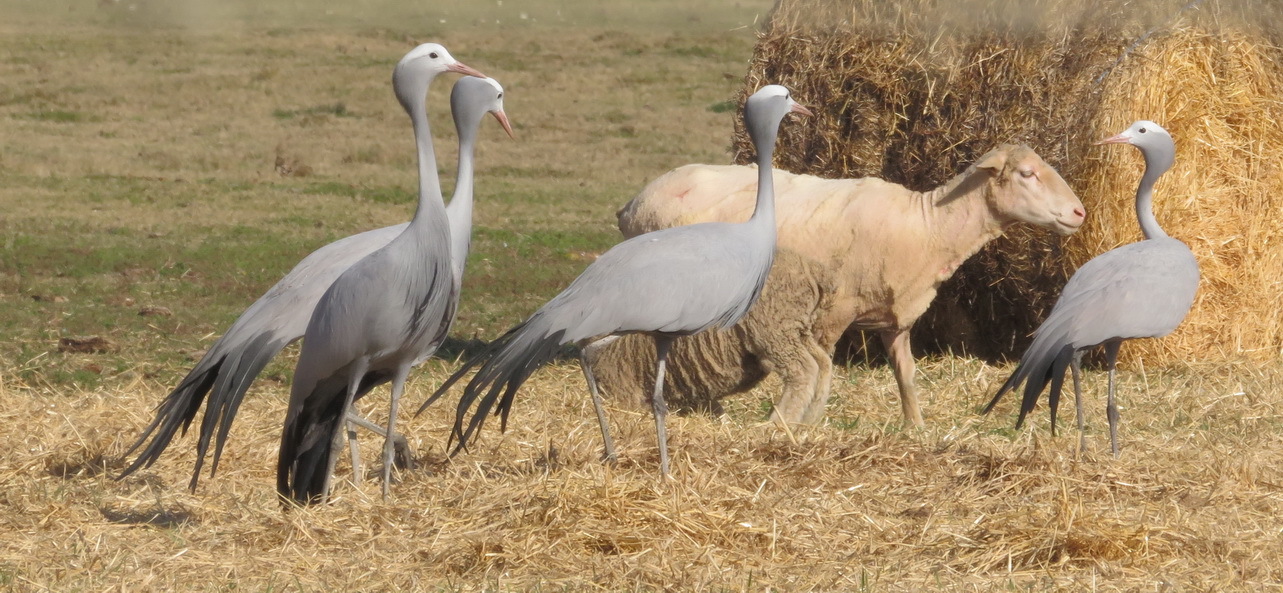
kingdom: Animalia
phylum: Chordata
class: Aves
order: Gruiformes
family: Gruidae
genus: Anthropoides
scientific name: Anthropoides paradiseus
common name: Blue crane
